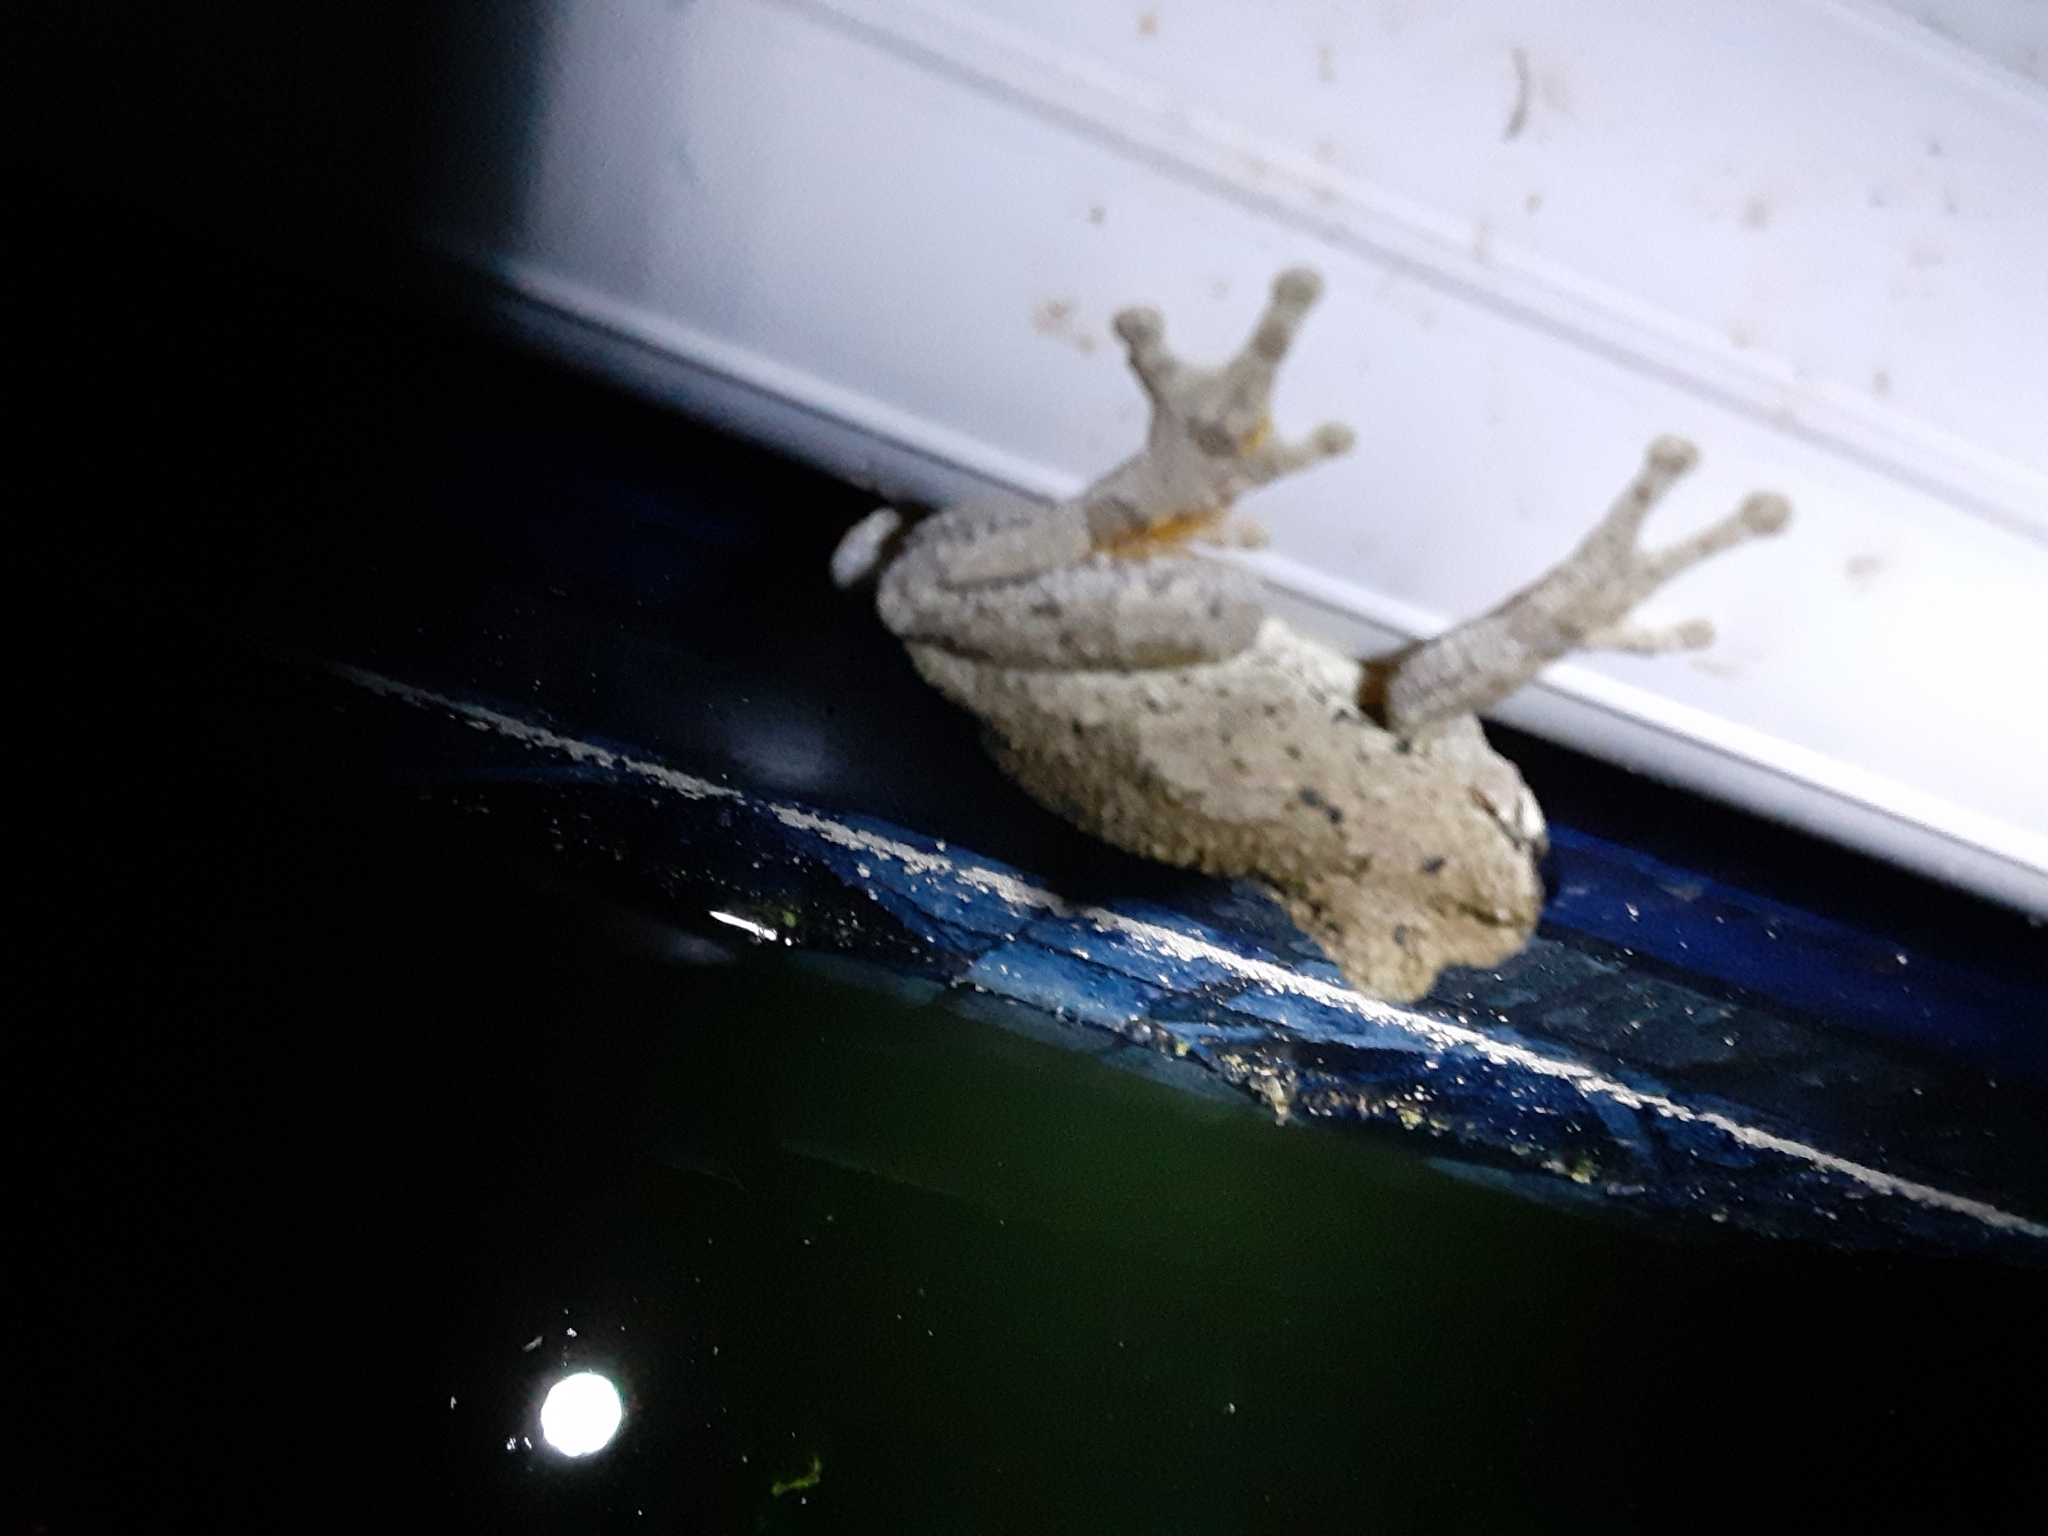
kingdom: Animalia
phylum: Chordata
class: Amphibia
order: Anura
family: Hylidae
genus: Dryophytes
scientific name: Dryophytes chrysoscelis
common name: Cope's gray treefrog
